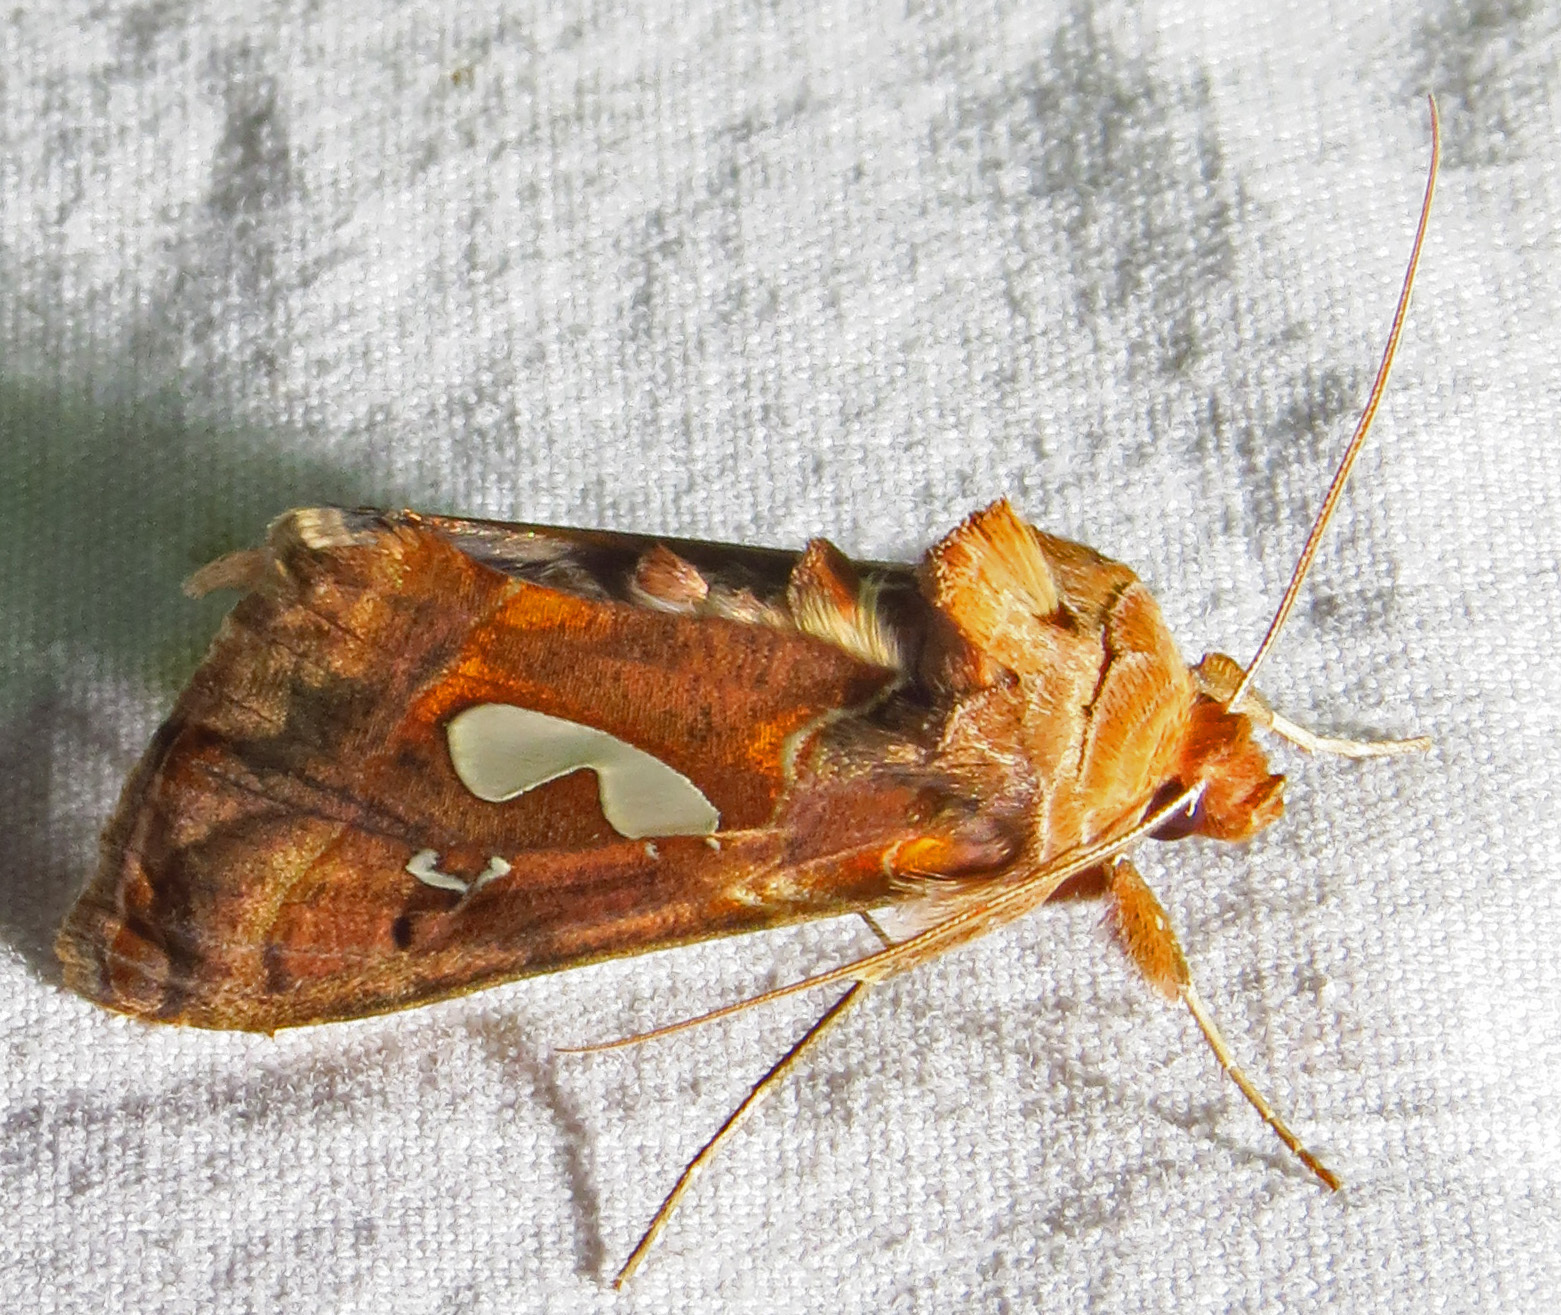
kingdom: Animalia
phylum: Arthropoda
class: Insecta
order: Lepidoptera
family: Noctuidae
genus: Megalographa
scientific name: Megalographa biloba
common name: Cutworm
